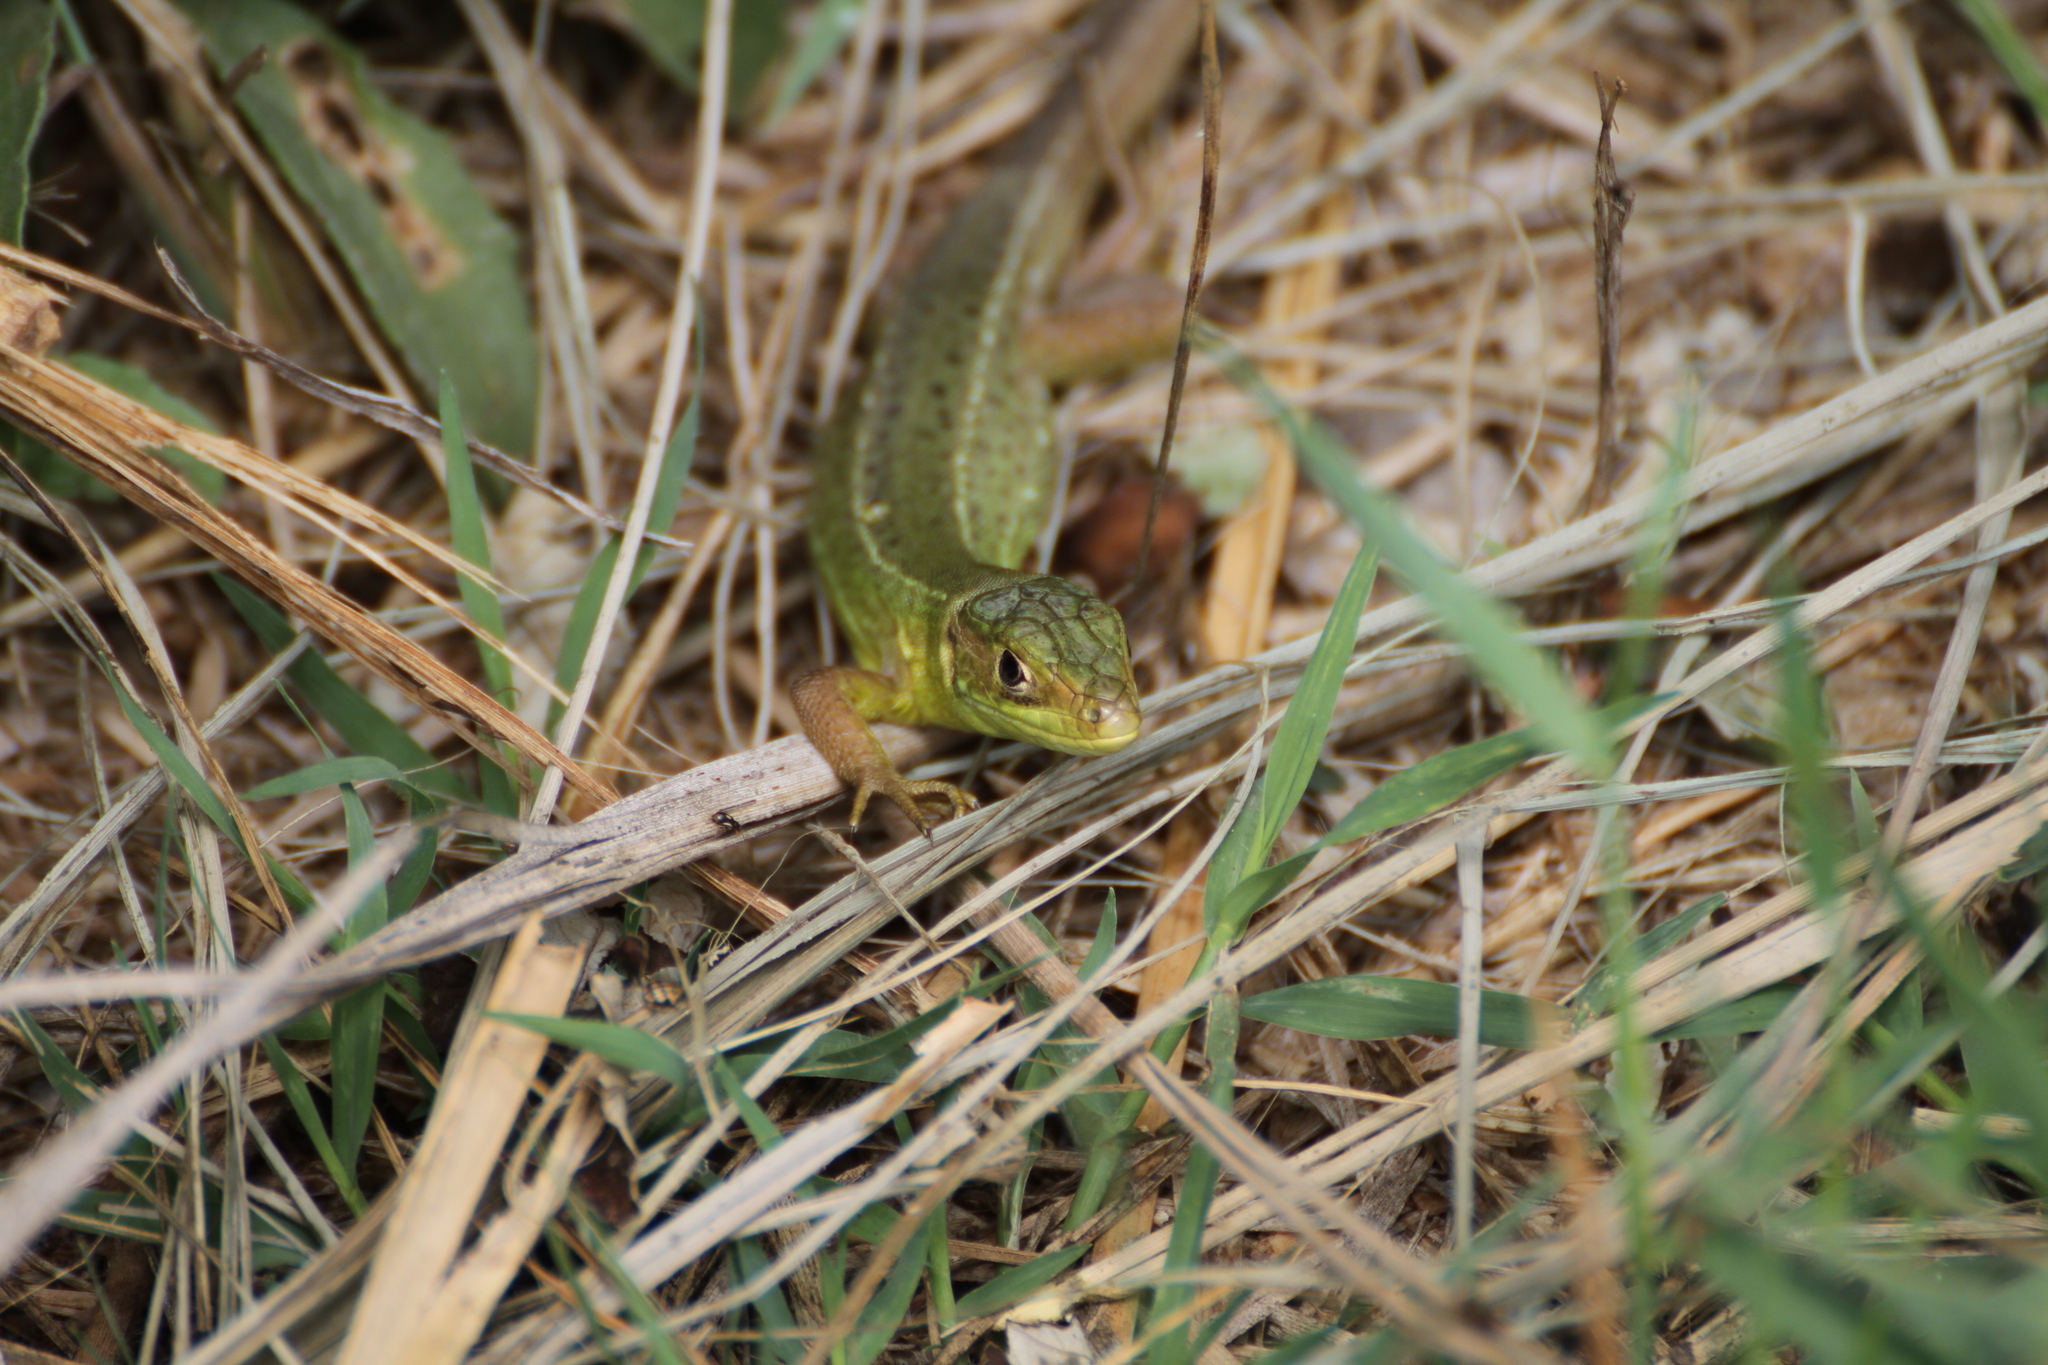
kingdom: Animalia
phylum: Chordata
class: Squamata
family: Lacertidae
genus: Lacerta
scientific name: Lacerta bilineata
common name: Western green lizard
